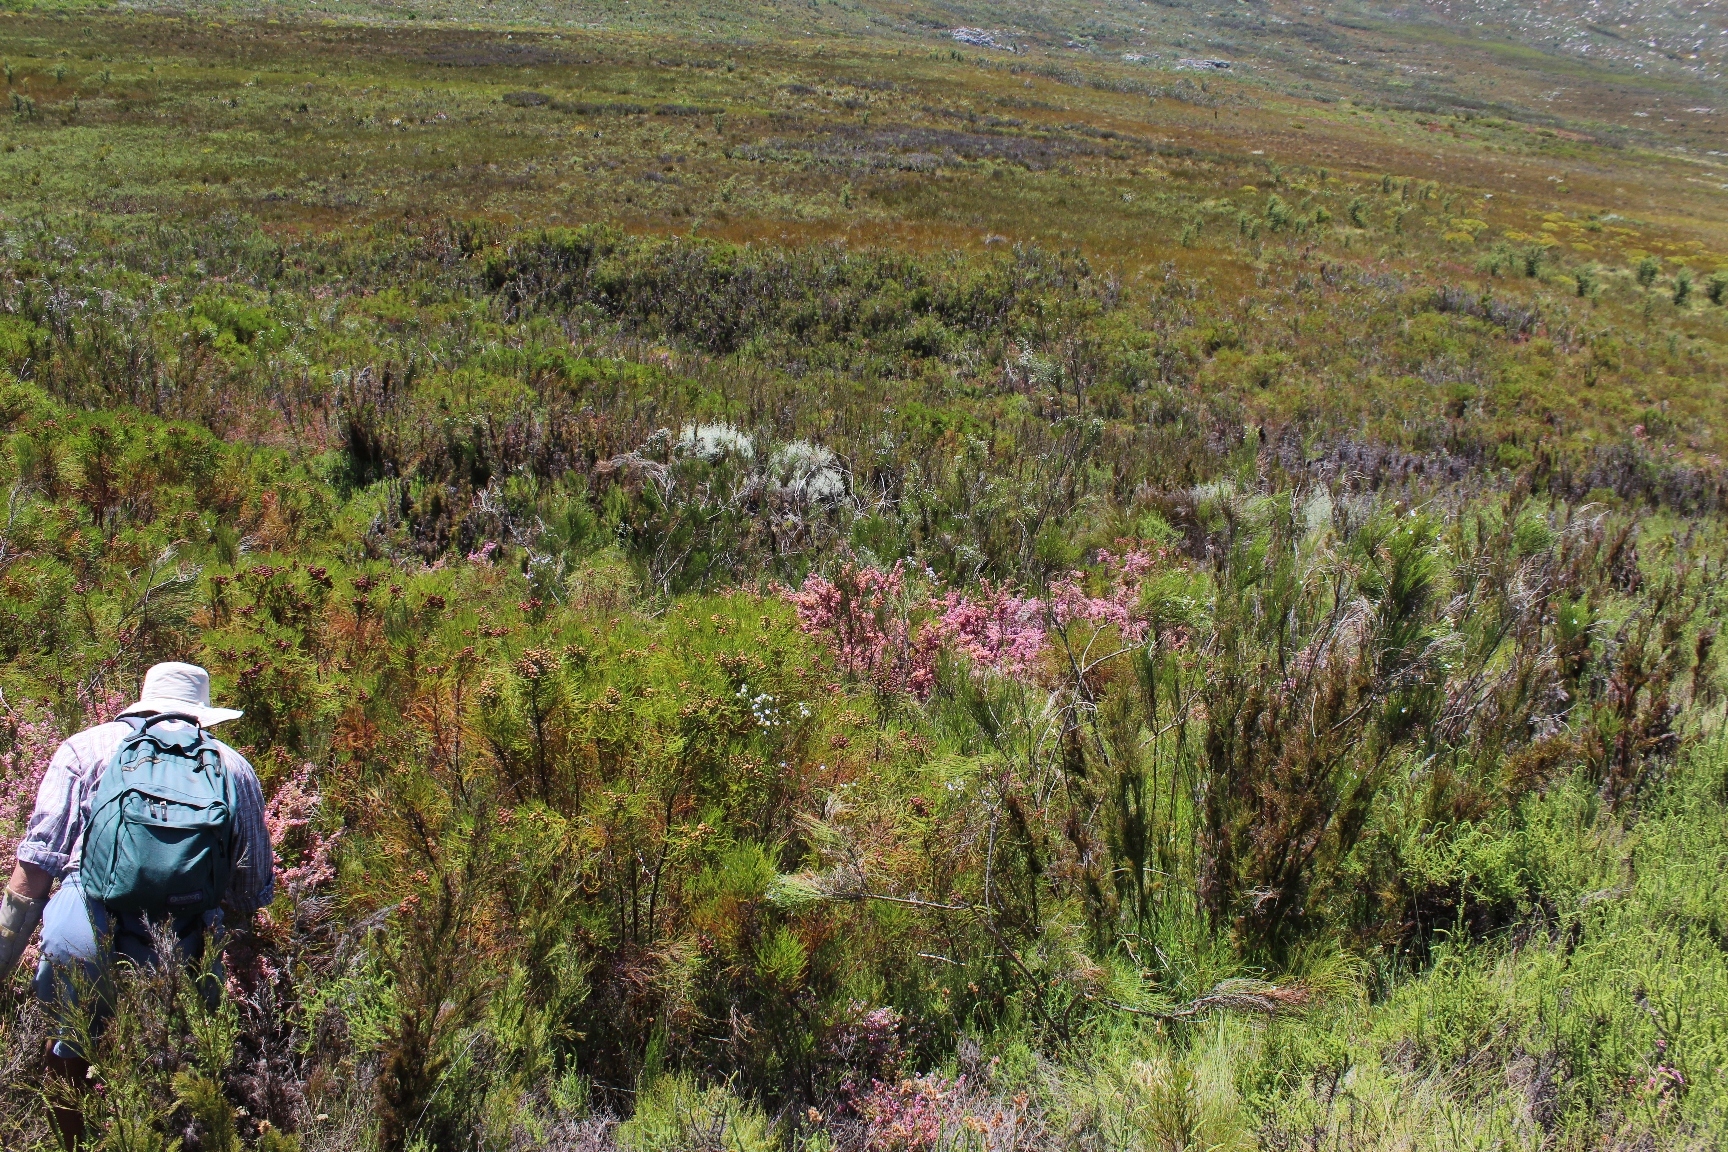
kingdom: Plantae
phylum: Tracheophyta
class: Magnoliopsida
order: Ericales
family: Ericaceae
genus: Erica
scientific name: Erica bergiana
